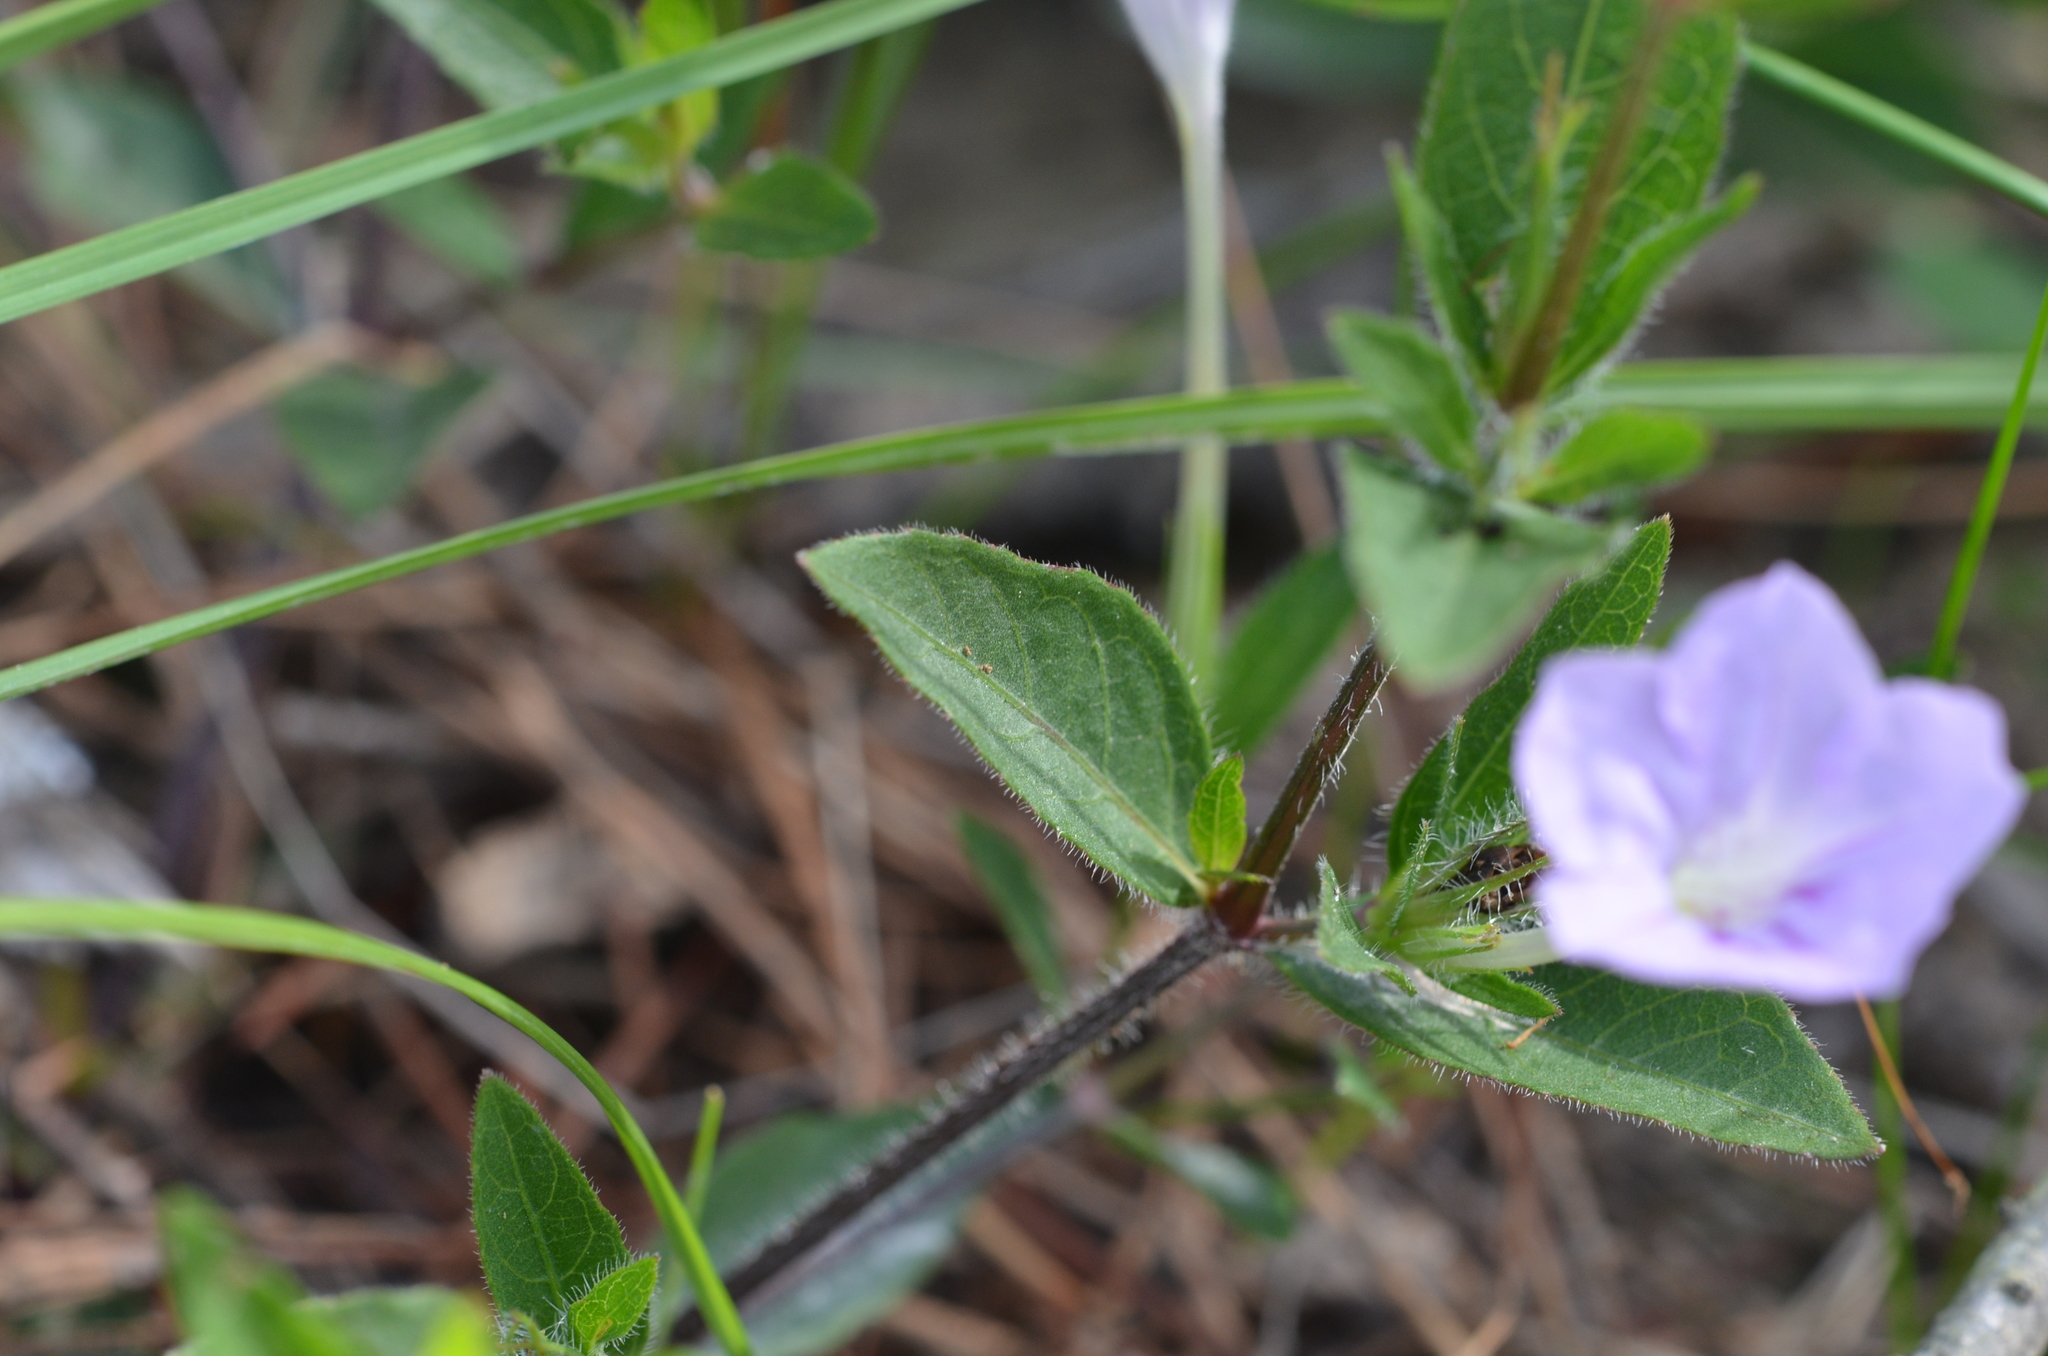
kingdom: Plantae
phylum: Tracheophyta
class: Magnoliopsida
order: Lamiales
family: Acanthaceae
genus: Ruellia
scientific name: Ruellia humilis
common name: Fringe-leaf ruellia
